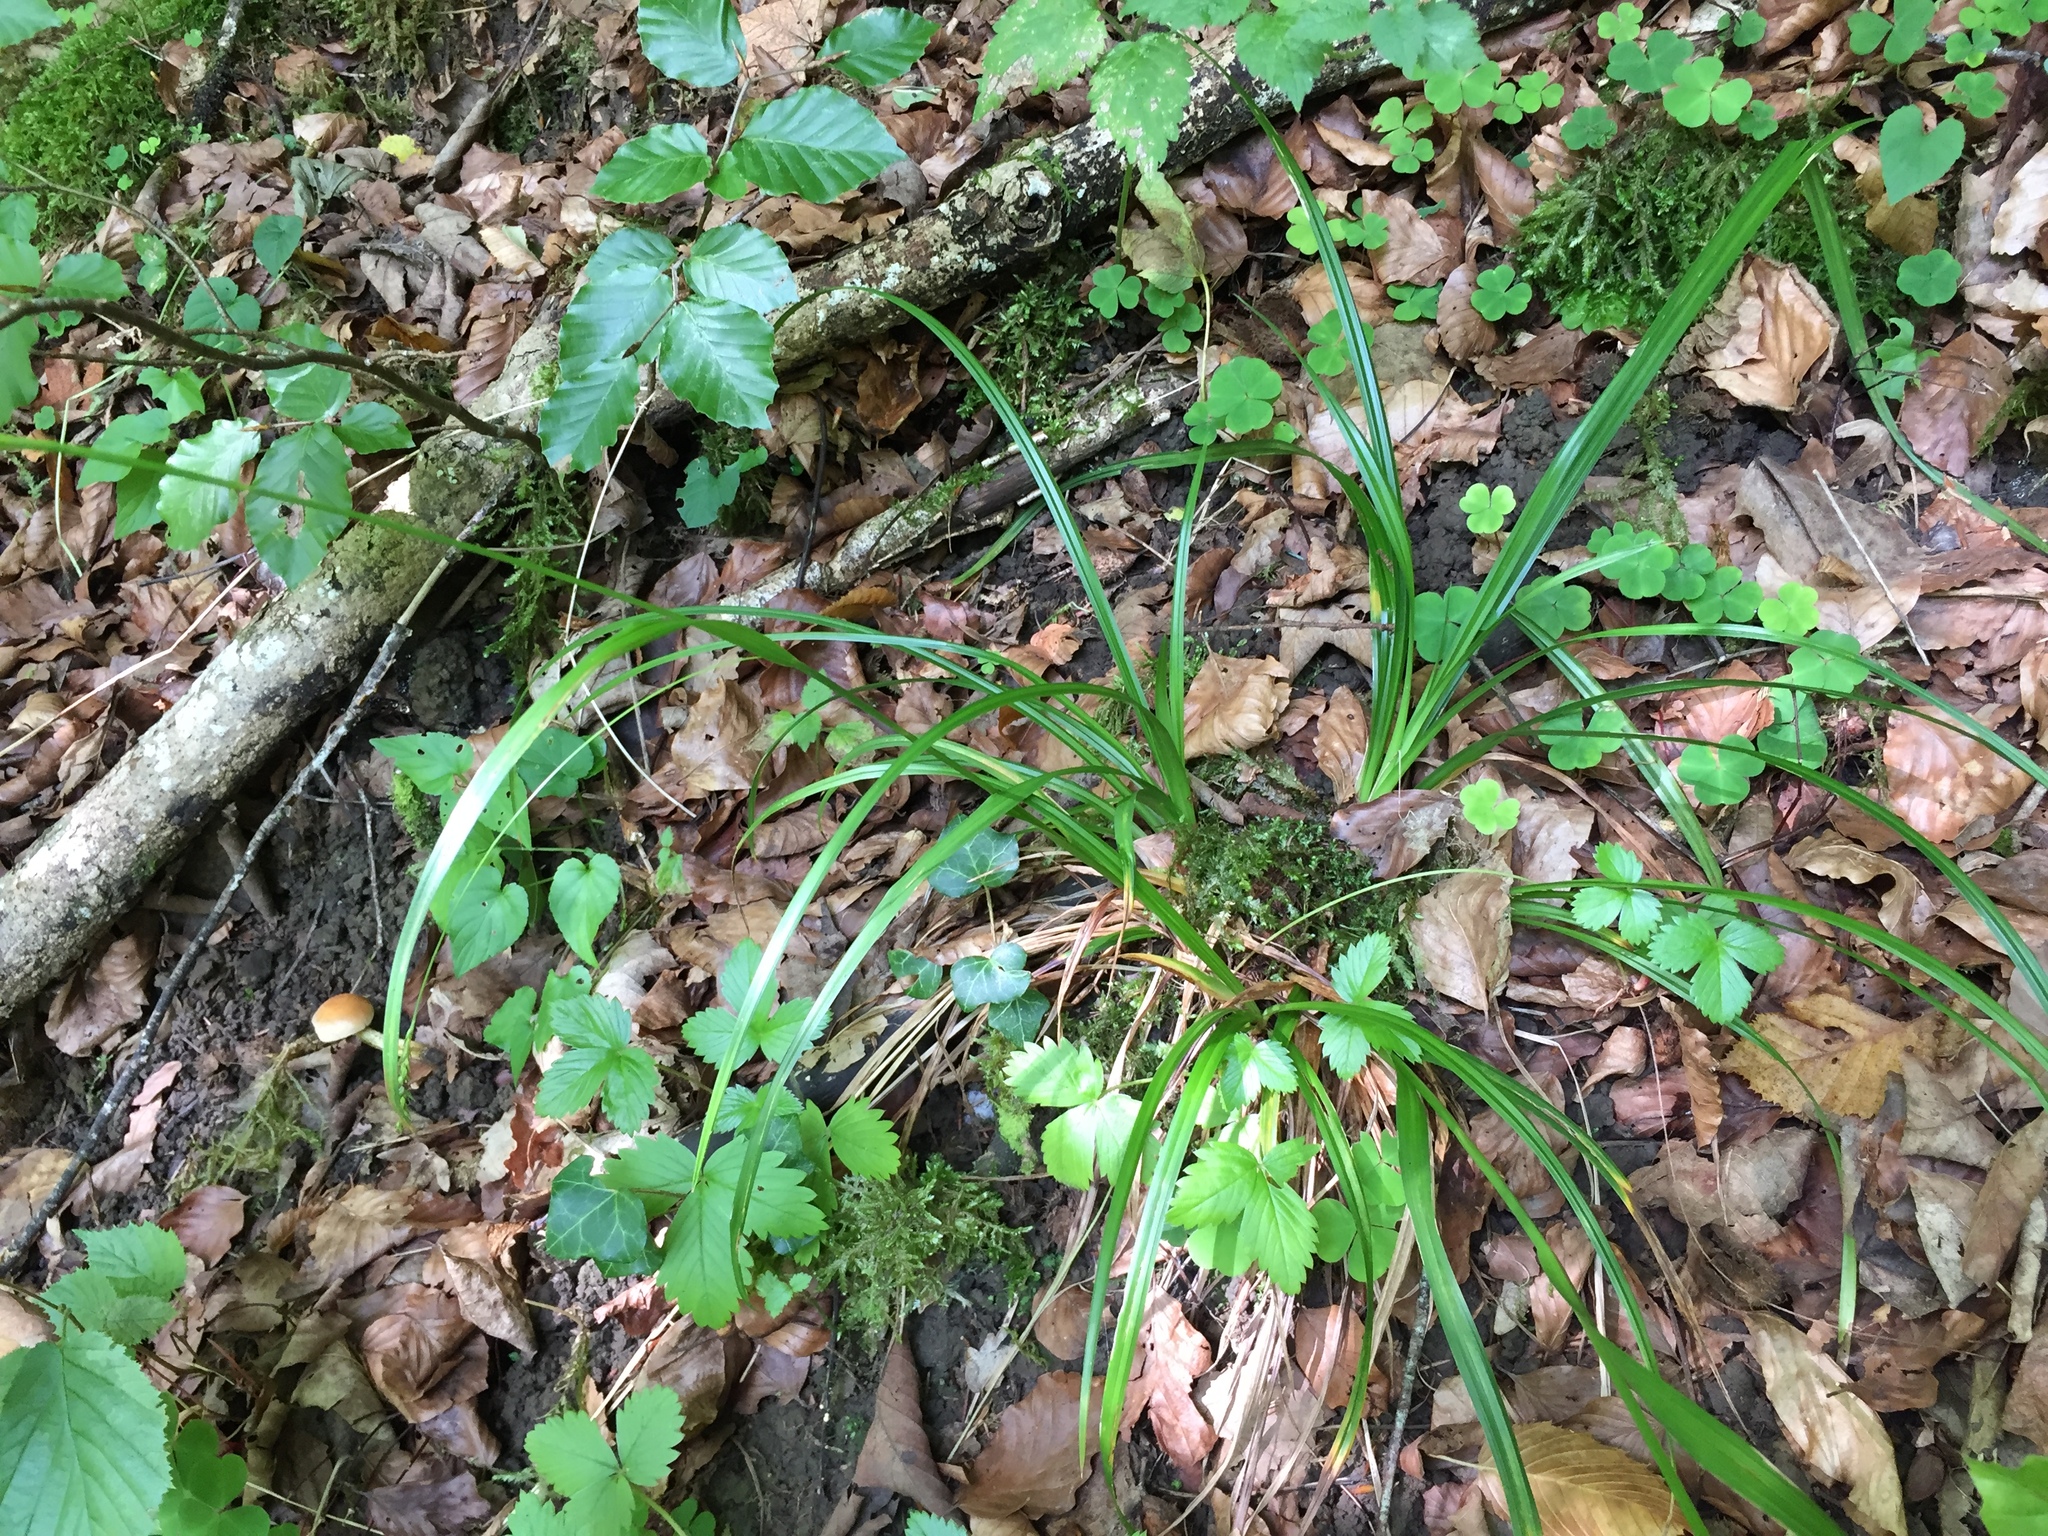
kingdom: Plantae
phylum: Tracheophyta
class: Liliopsida
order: Poales
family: Cyperaceae
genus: Carex
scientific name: Carex sylvatica
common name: Wood-sedge
